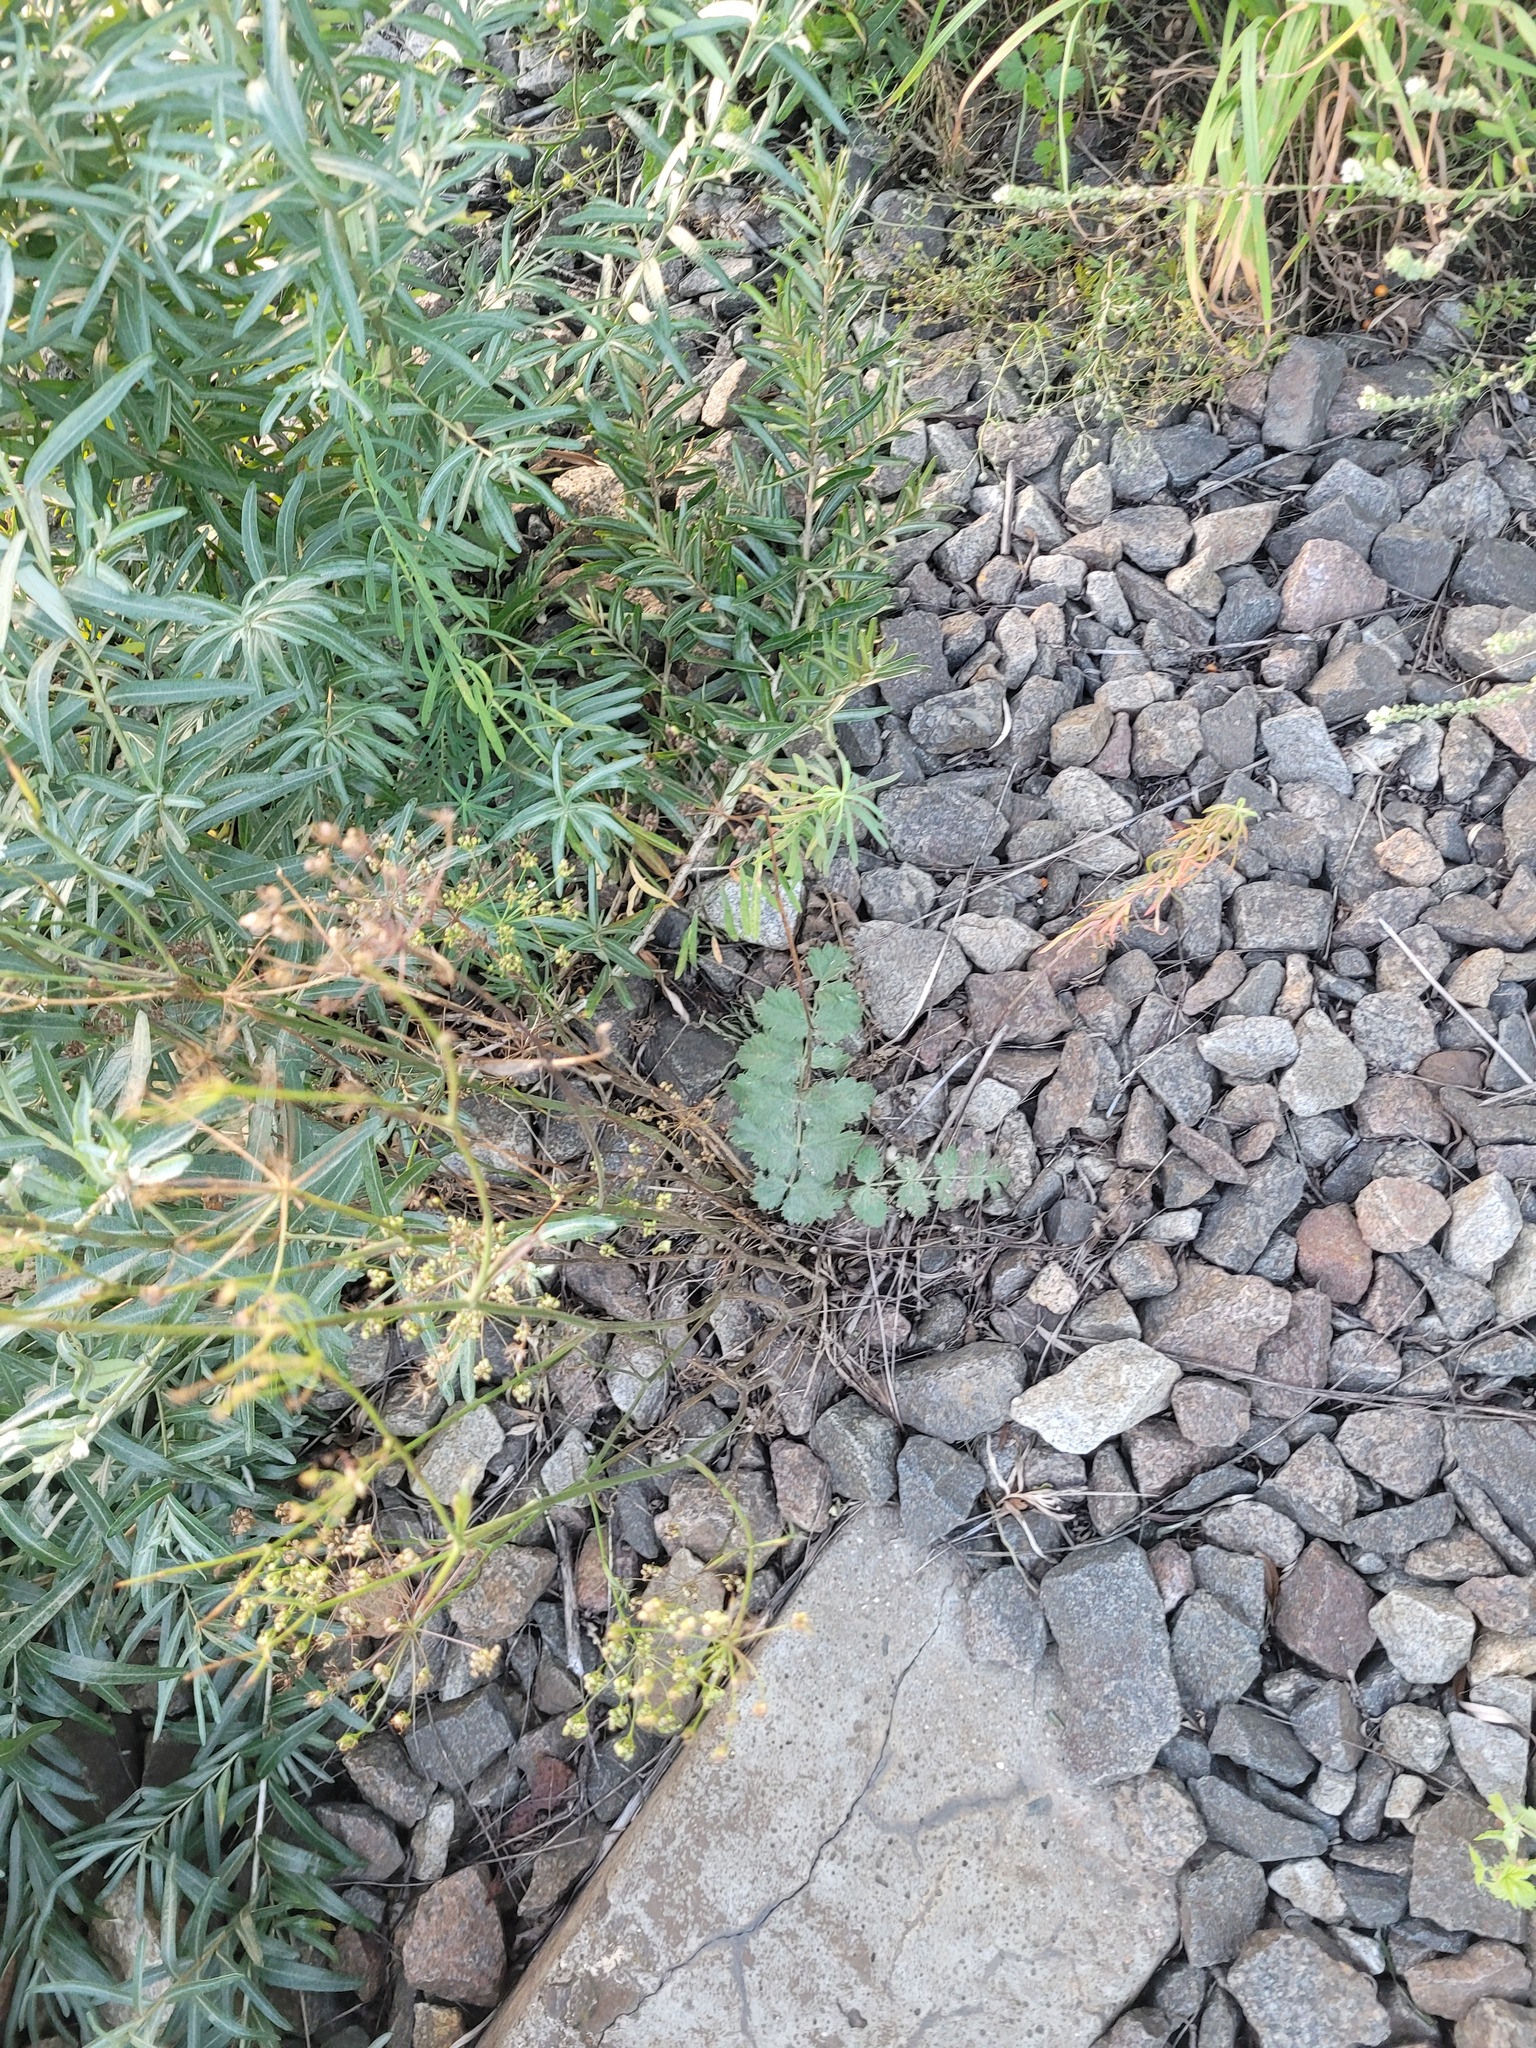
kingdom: Plantae
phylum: Tracheophyta
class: Magnoliopsida
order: Apiales
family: Apiaceae
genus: Pimpinella
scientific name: Pimpinella saxifraga
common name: Burnet-saxifrage
